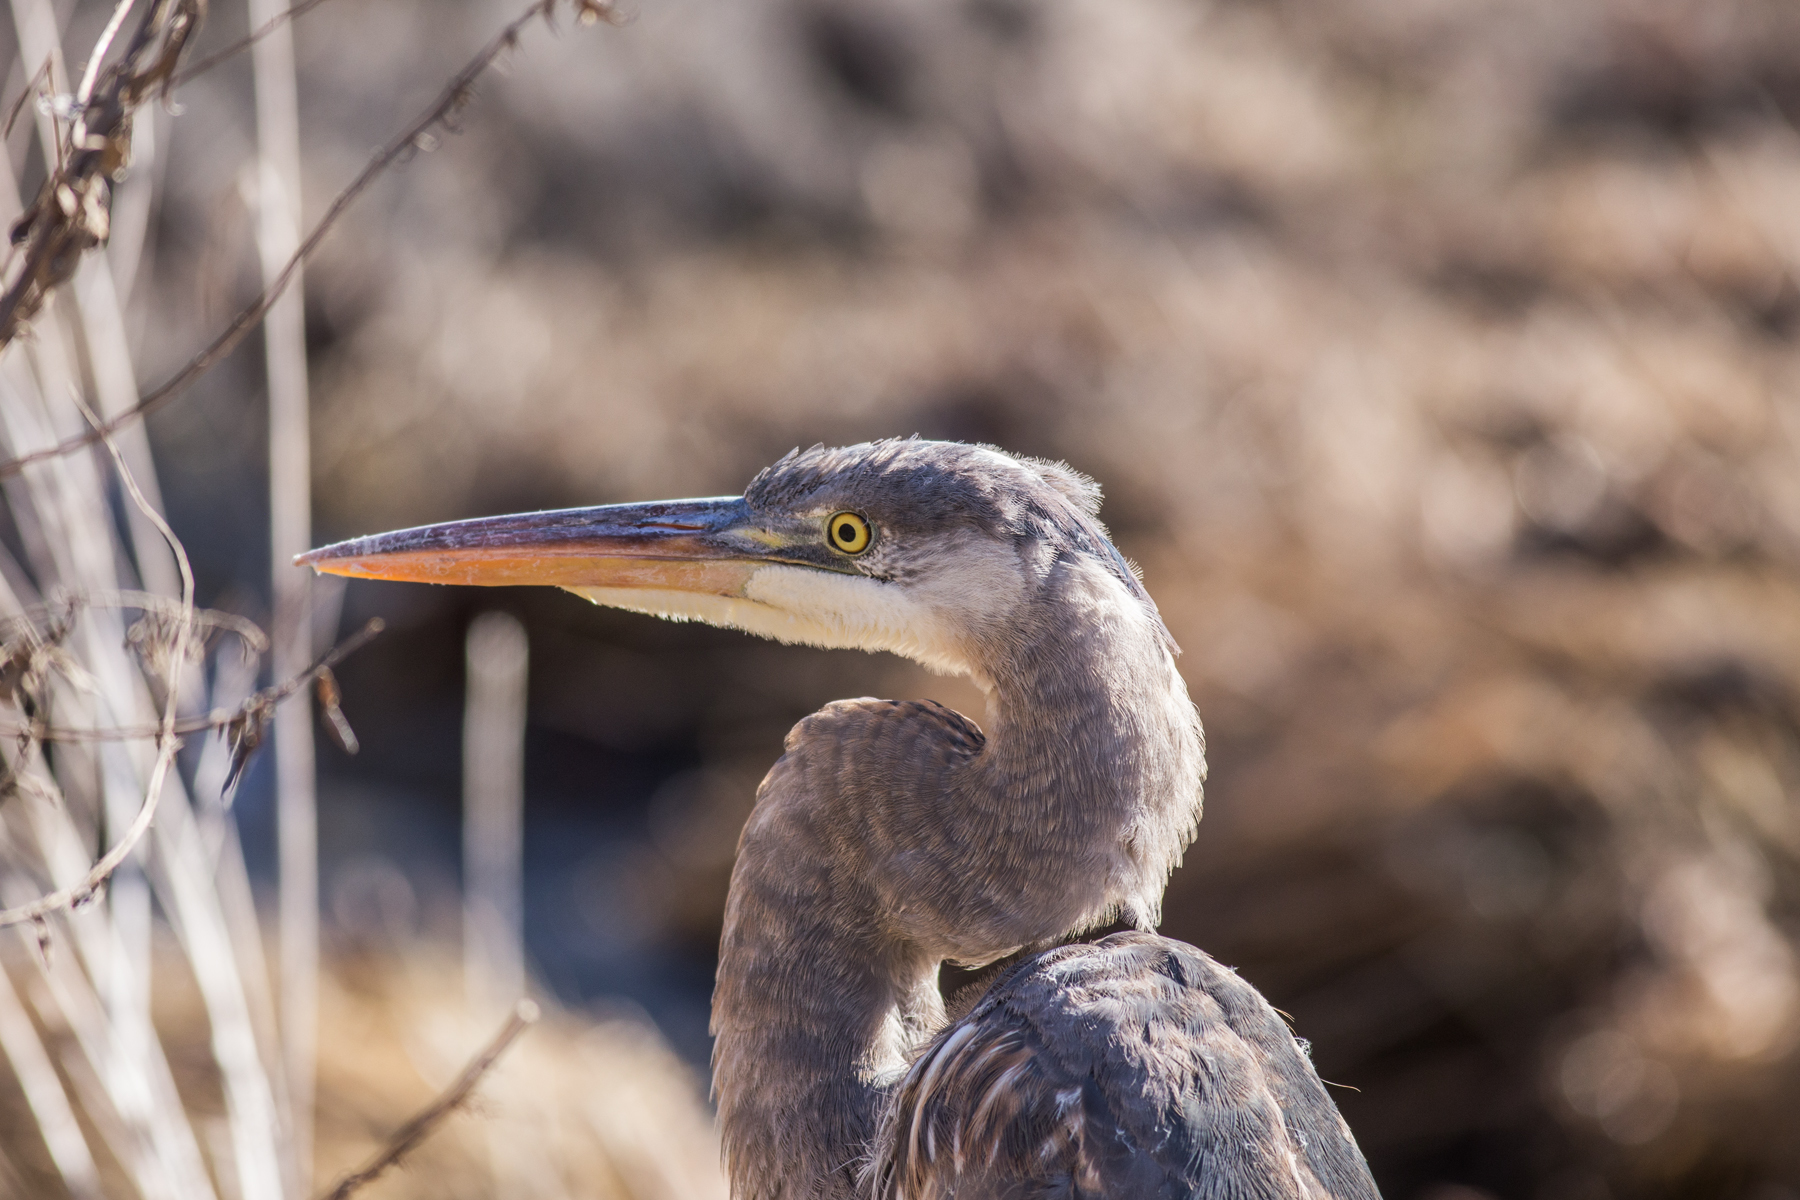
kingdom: Animalia
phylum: Chordata
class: Aves
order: Pelecaniformes
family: Ardeidae
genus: Ardea
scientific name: Ardea herodias
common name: Great blue heron
